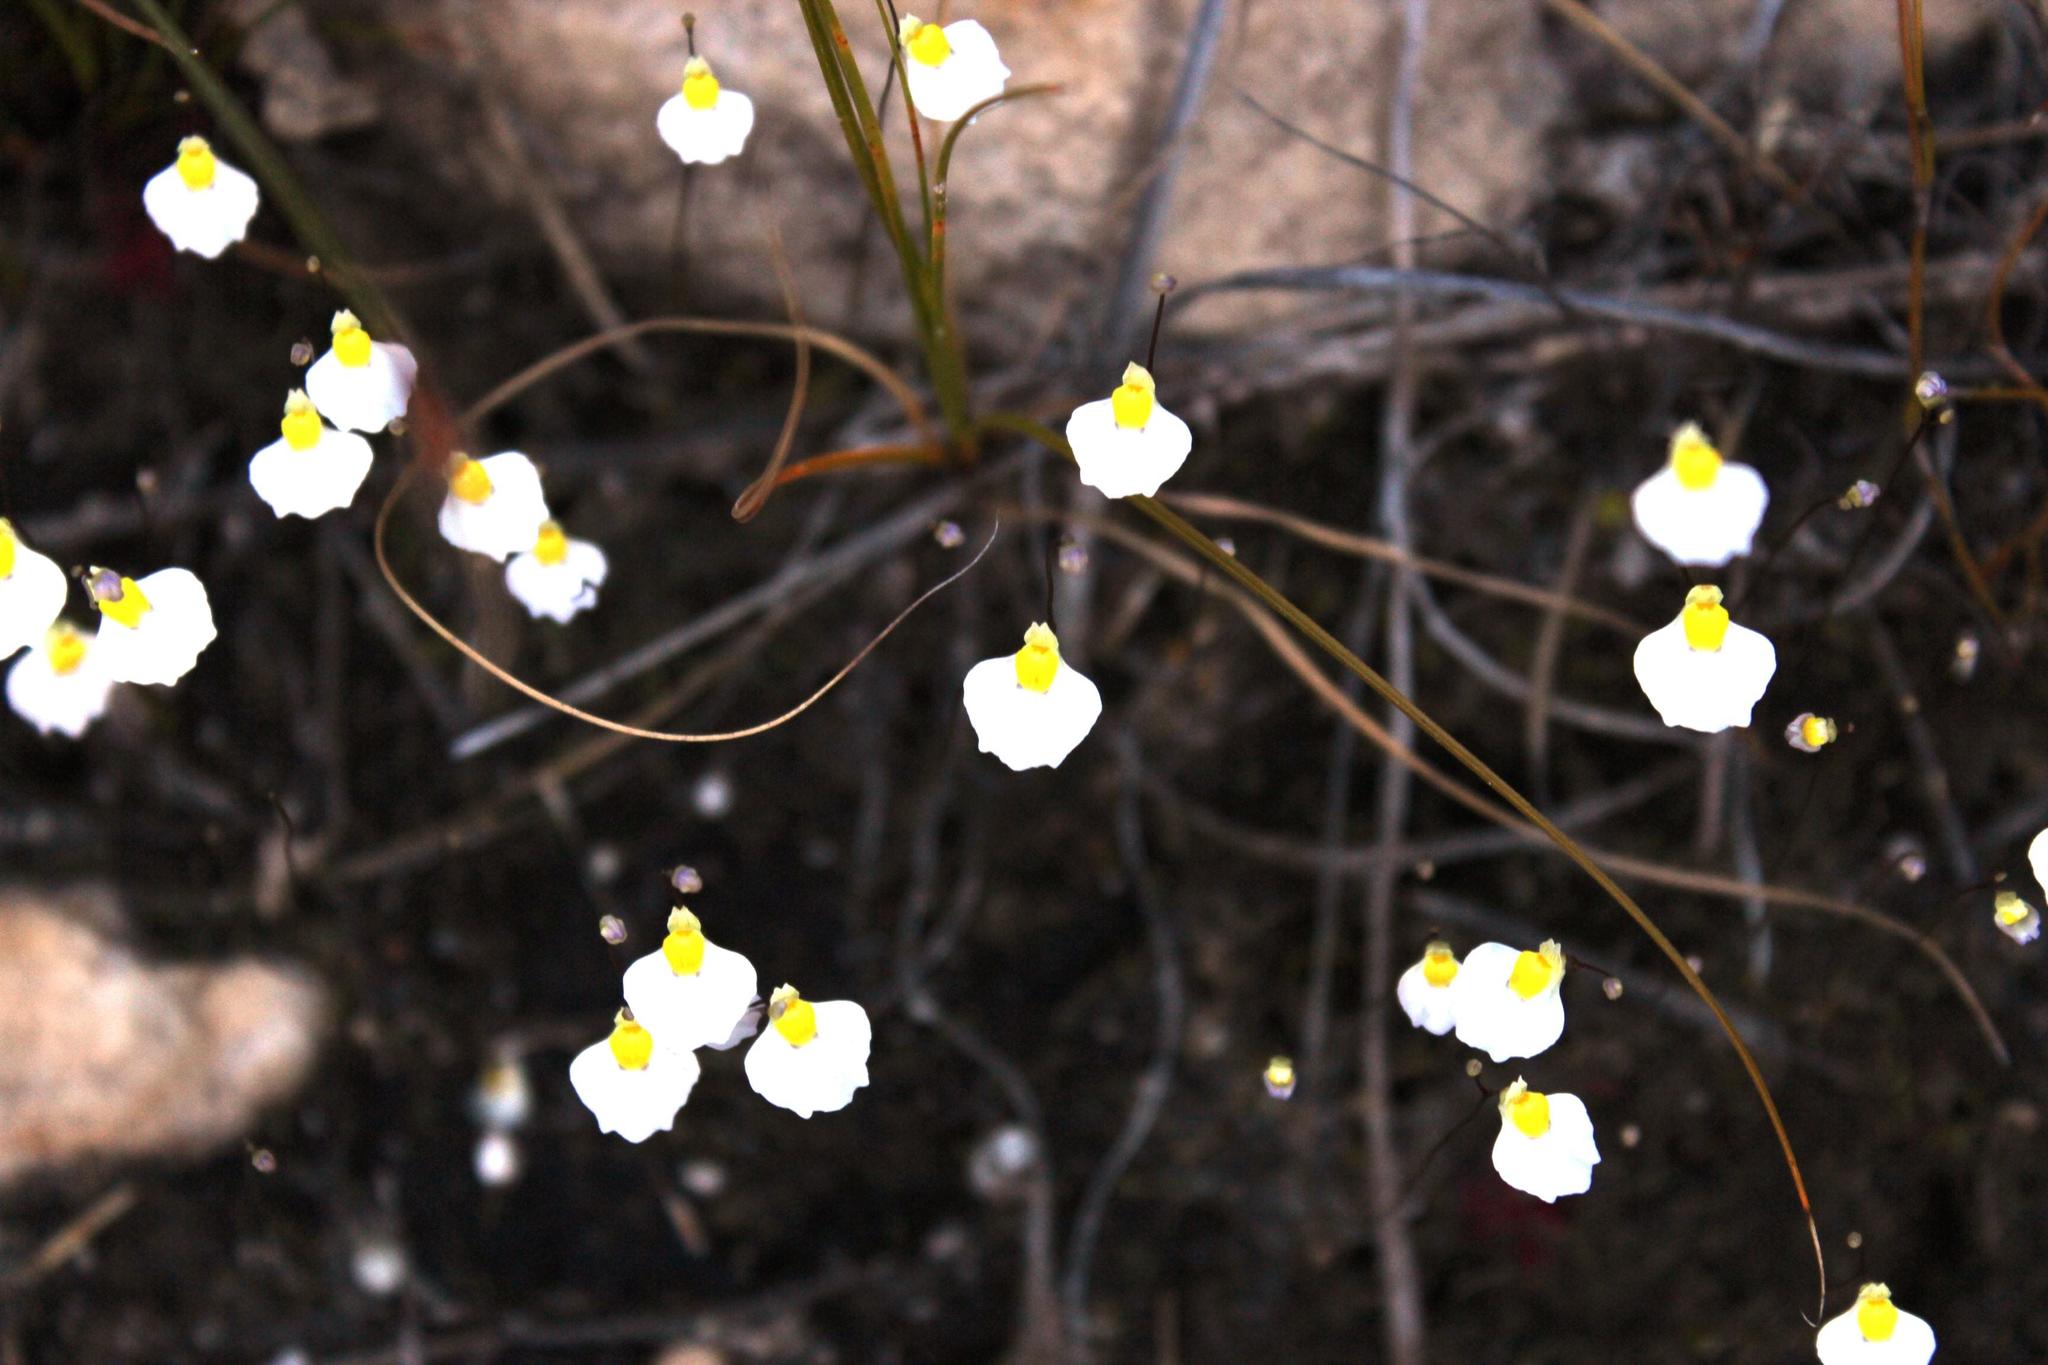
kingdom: Plantae
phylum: Tracheophyta
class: Magnoliopsida
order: Lamiales
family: Lentibulariaceae
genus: Utricularia
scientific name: Utricularia bisquamata
